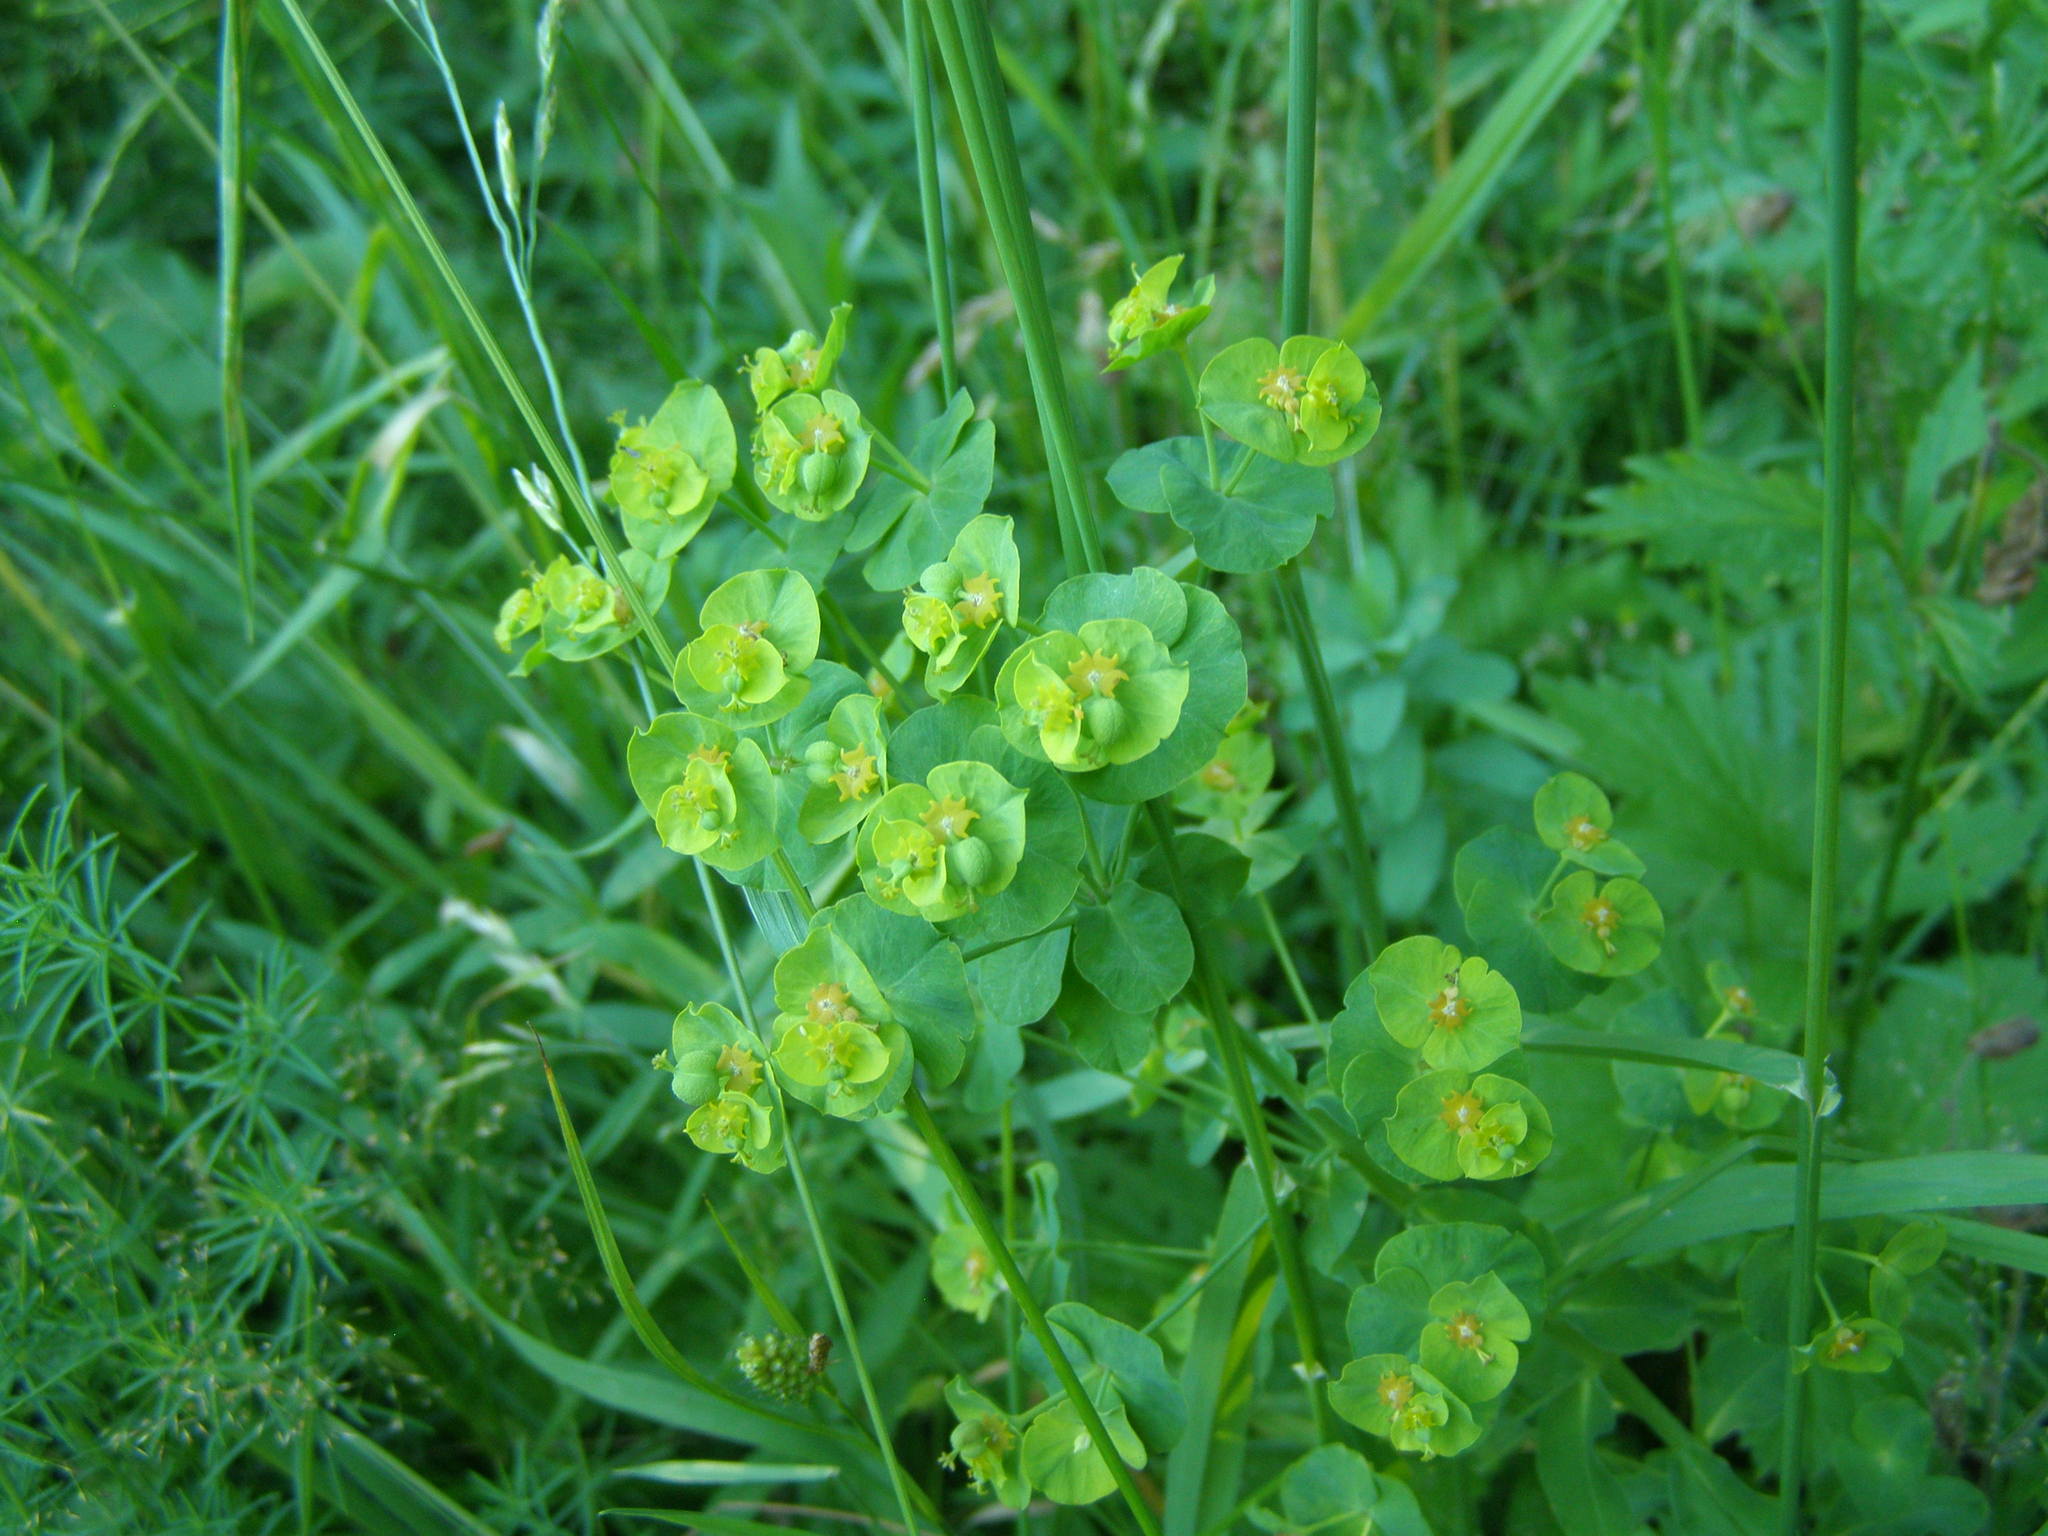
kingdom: Plantae
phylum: Tracheophyta
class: Magnoliopsida
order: Malpighiales
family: Euphorbiaceae
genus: Euphorbia
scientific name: Euphorbia esula
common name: Leafy spurge
